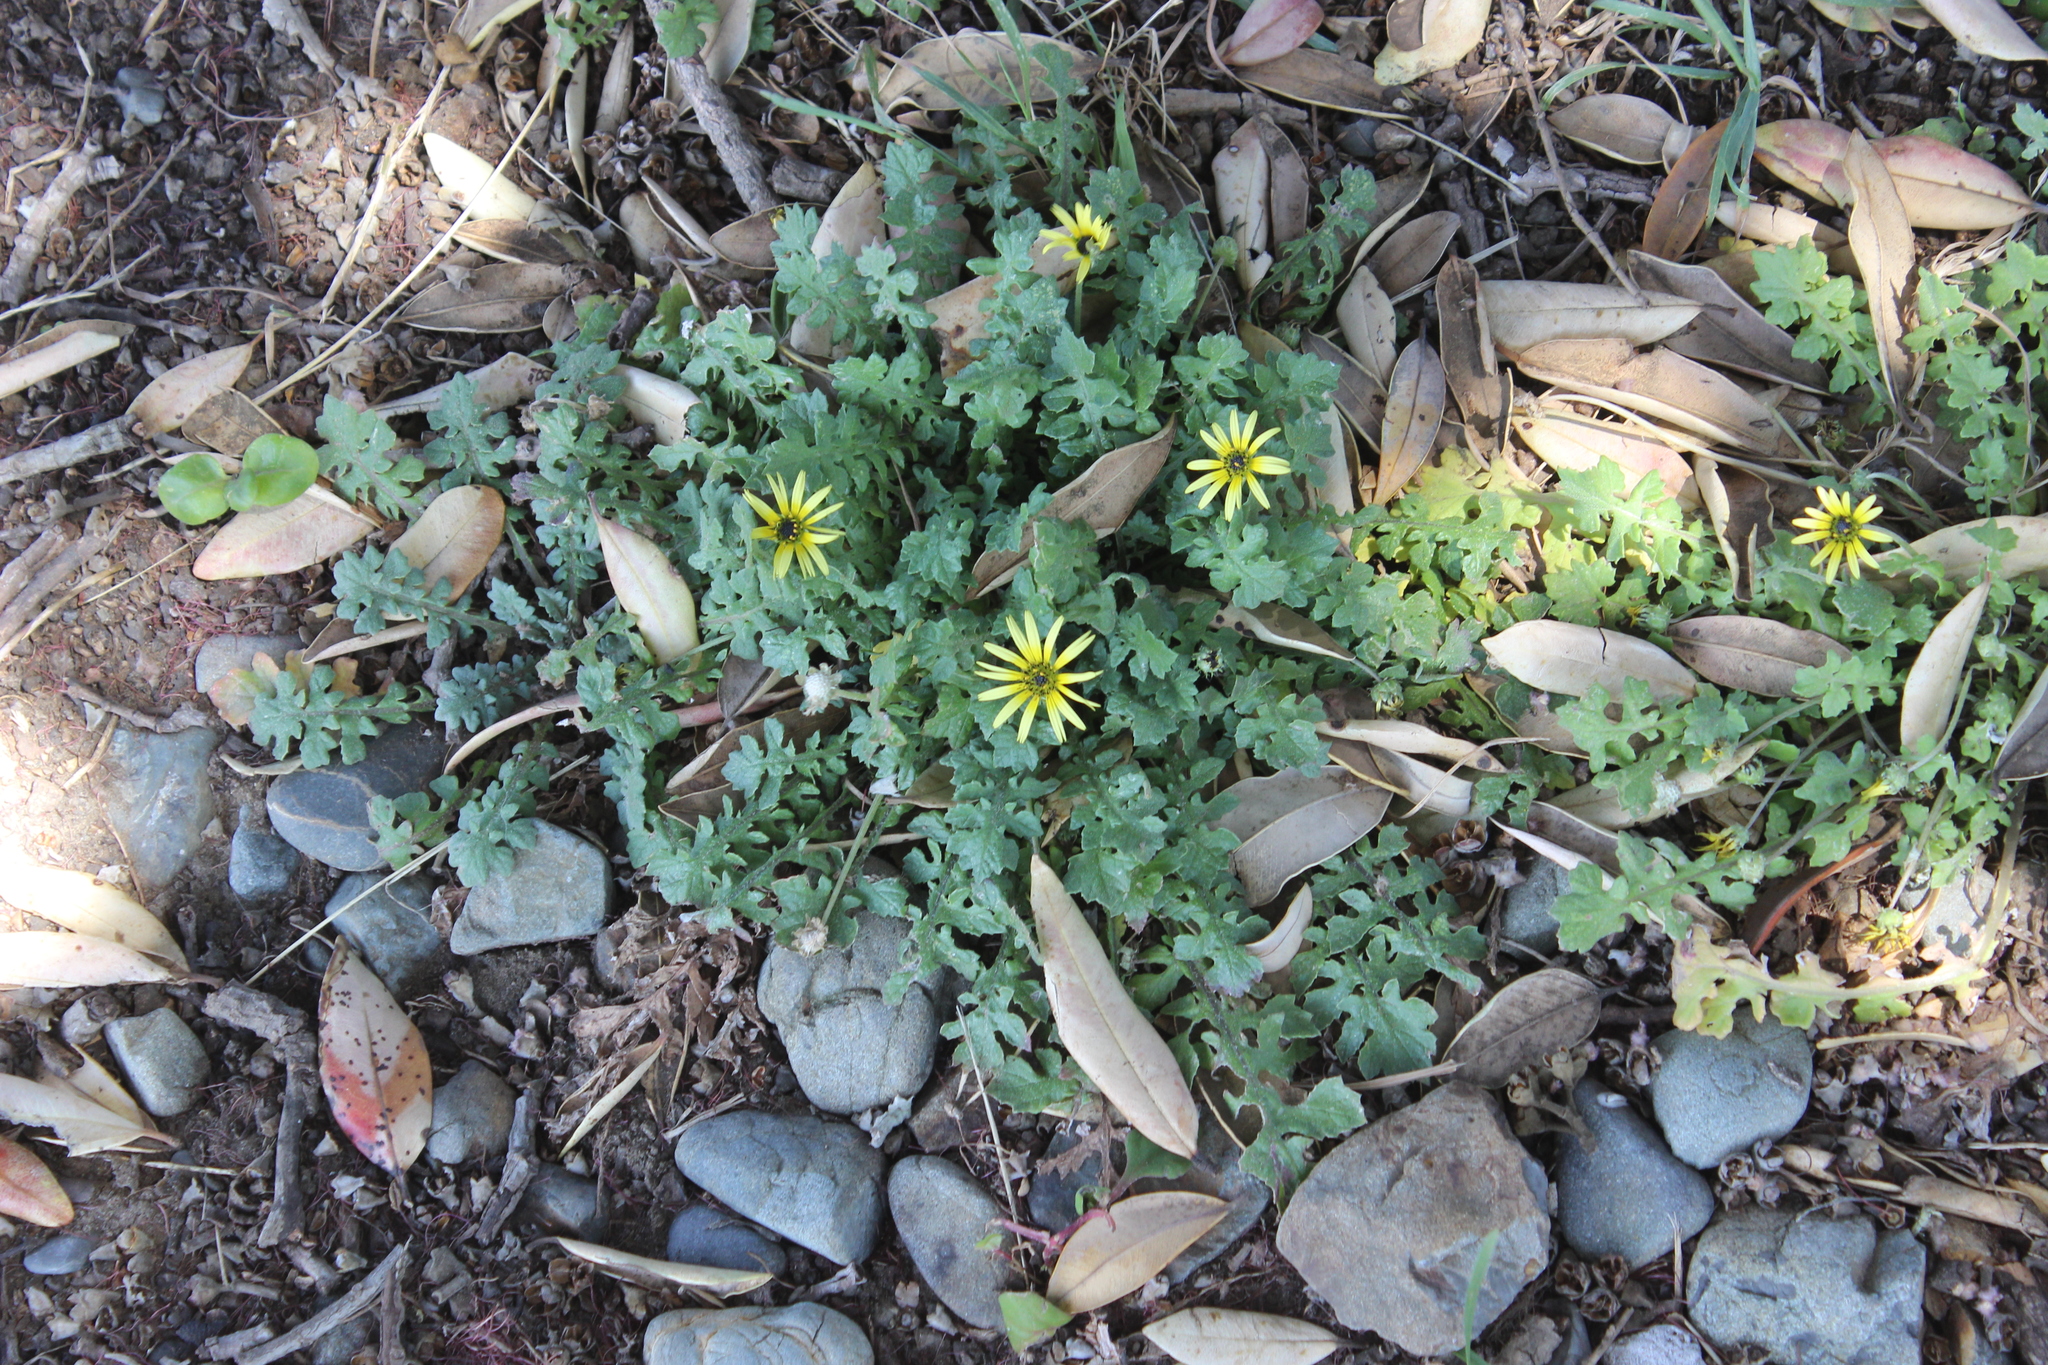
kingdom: Plantae
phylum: Tracheophyta
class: Magnoliopsida
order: Asterales
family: Asteraceae
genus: Arctotheca
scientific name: Arctotheca calendula
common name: Capeweed
